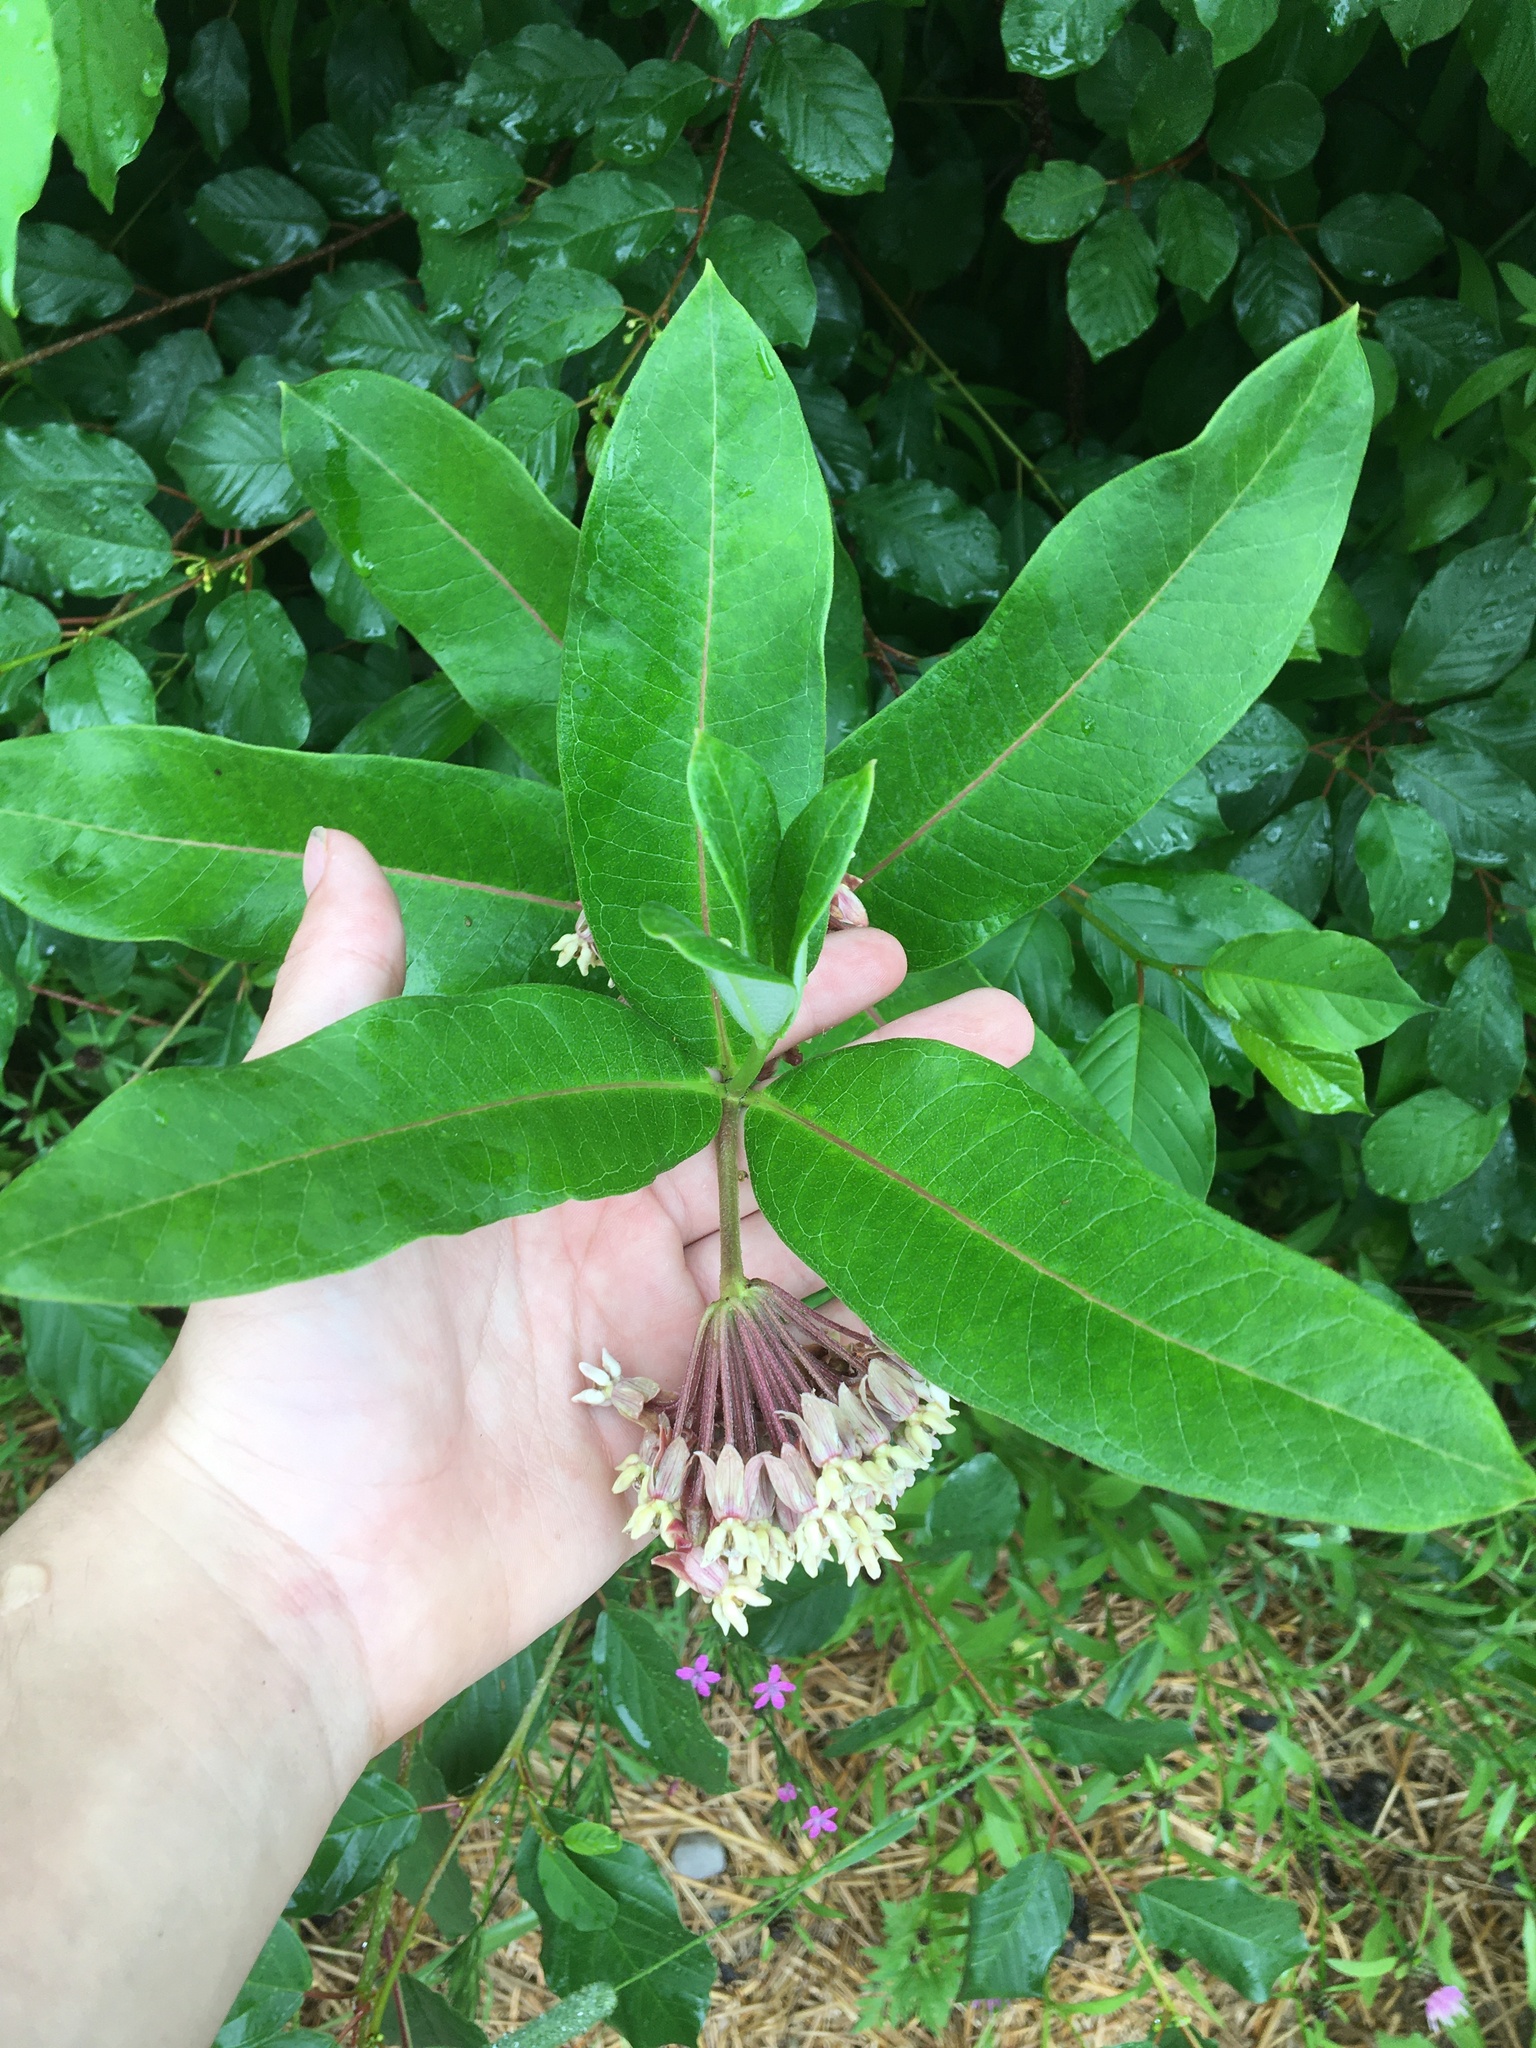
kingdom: Plantae
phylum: Tracheophyta
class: Magnoliopsida
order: Gentianales
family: Apocynaceae
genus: Asclepias
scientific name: Asclepias syriaca
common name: Common milkweed
